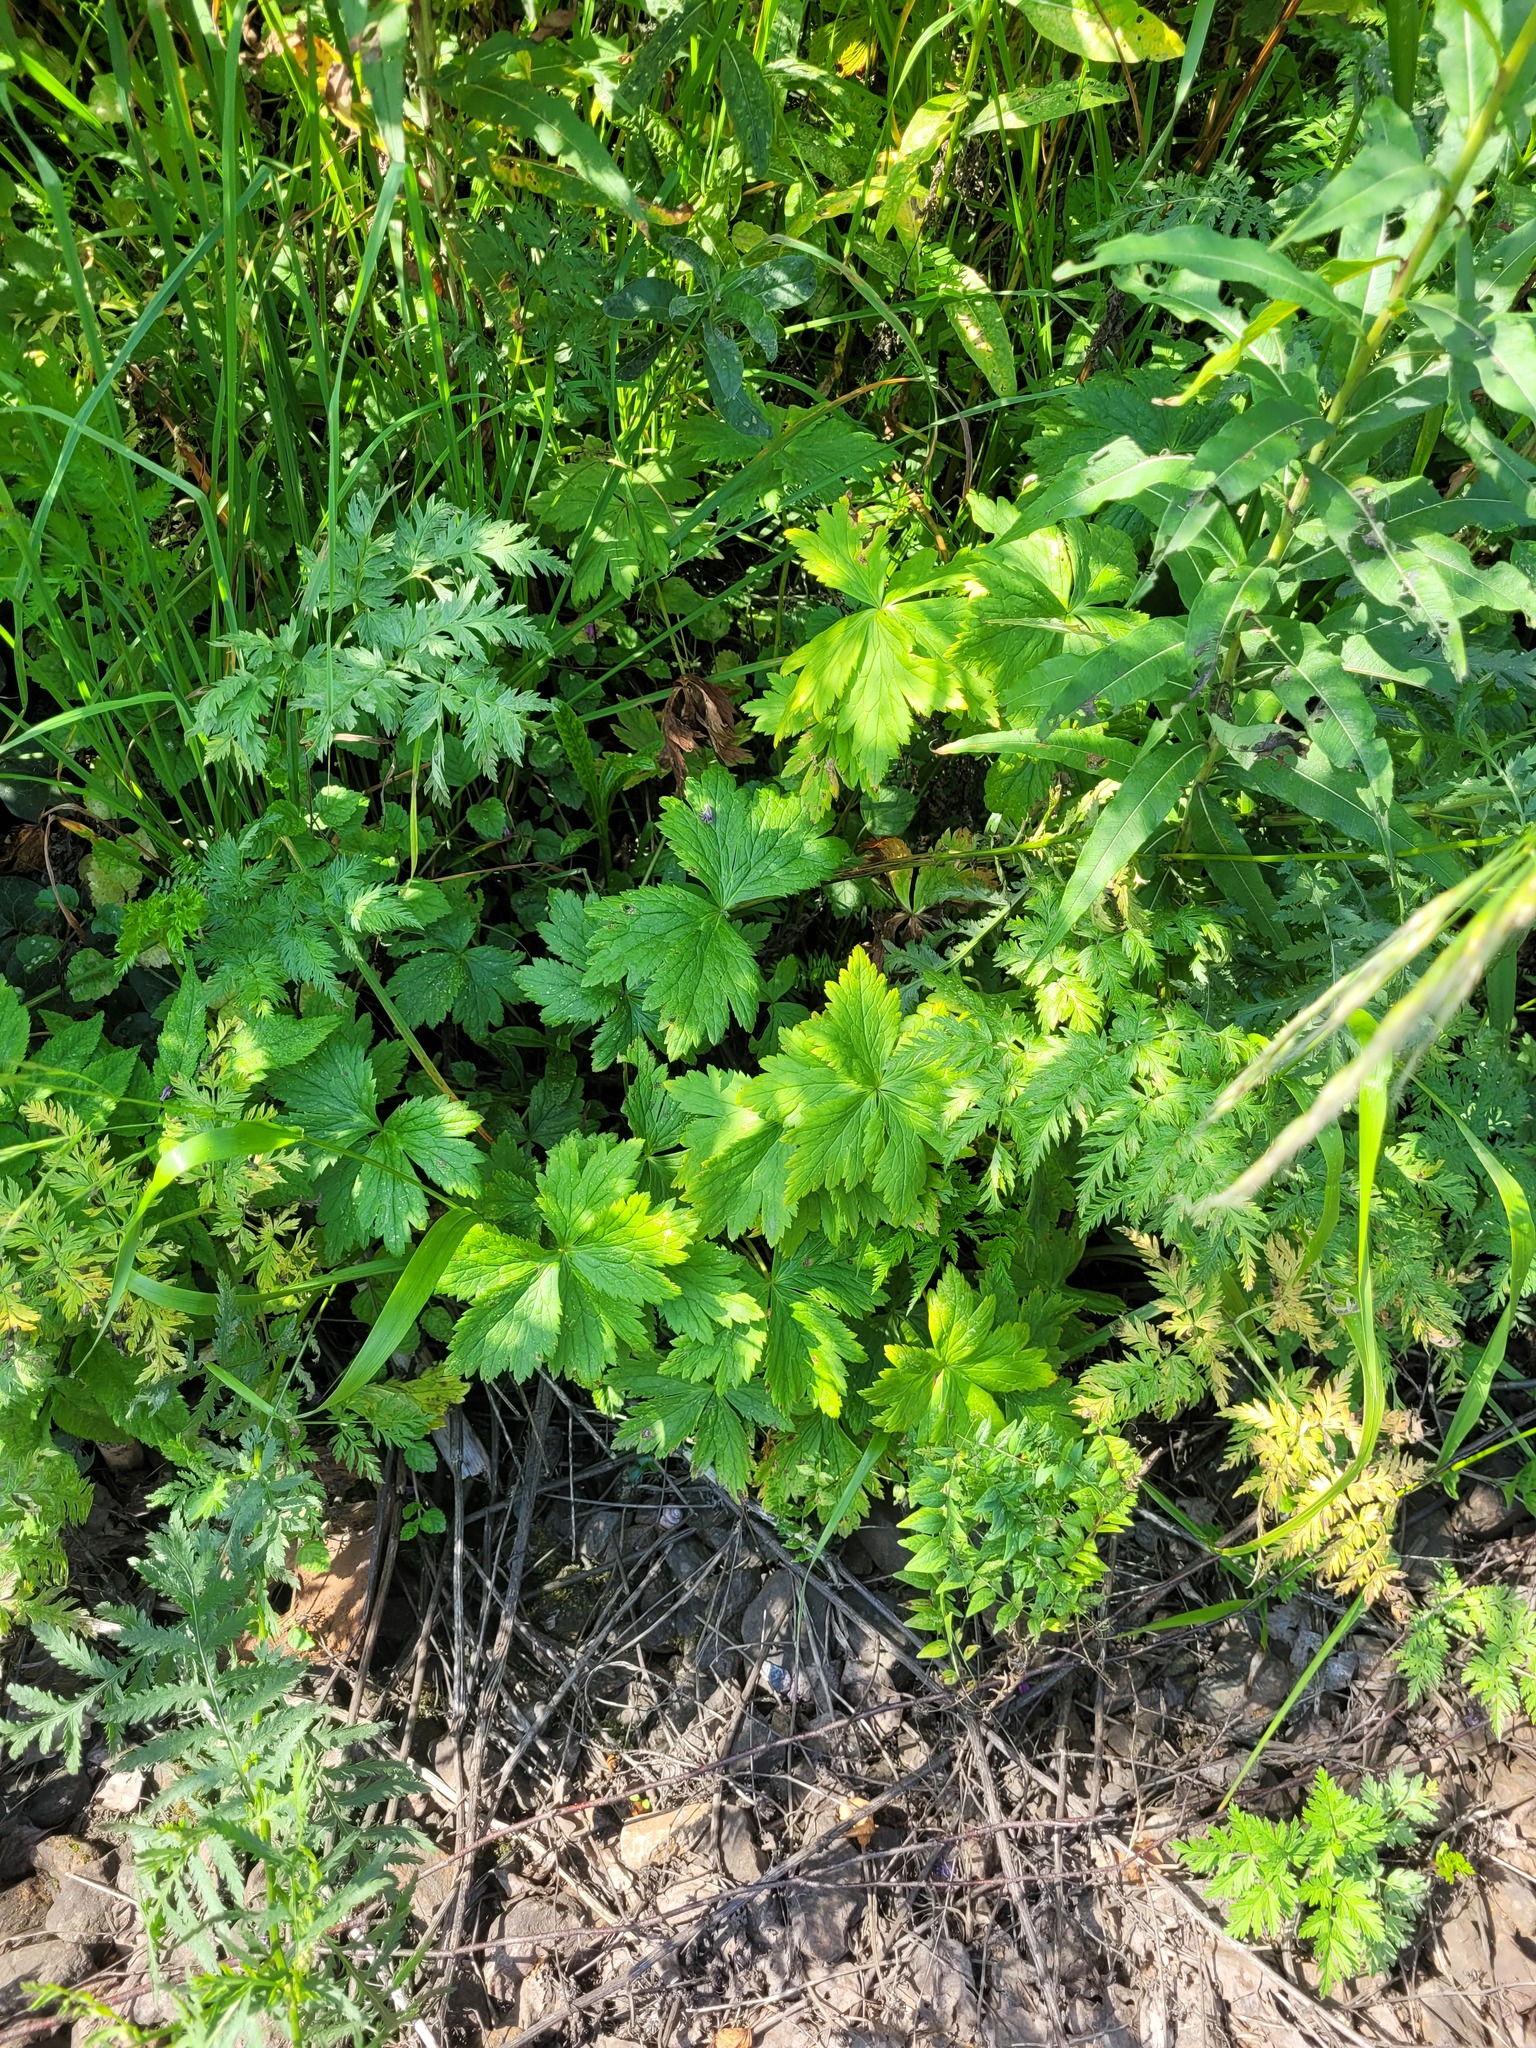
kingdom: Plantae
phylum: Tracheophyta
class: Magnoliopsida
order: Ranunculales
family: Ranunculaceae
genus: Trollius
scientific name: Trollius europaeus
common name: European globeflower
